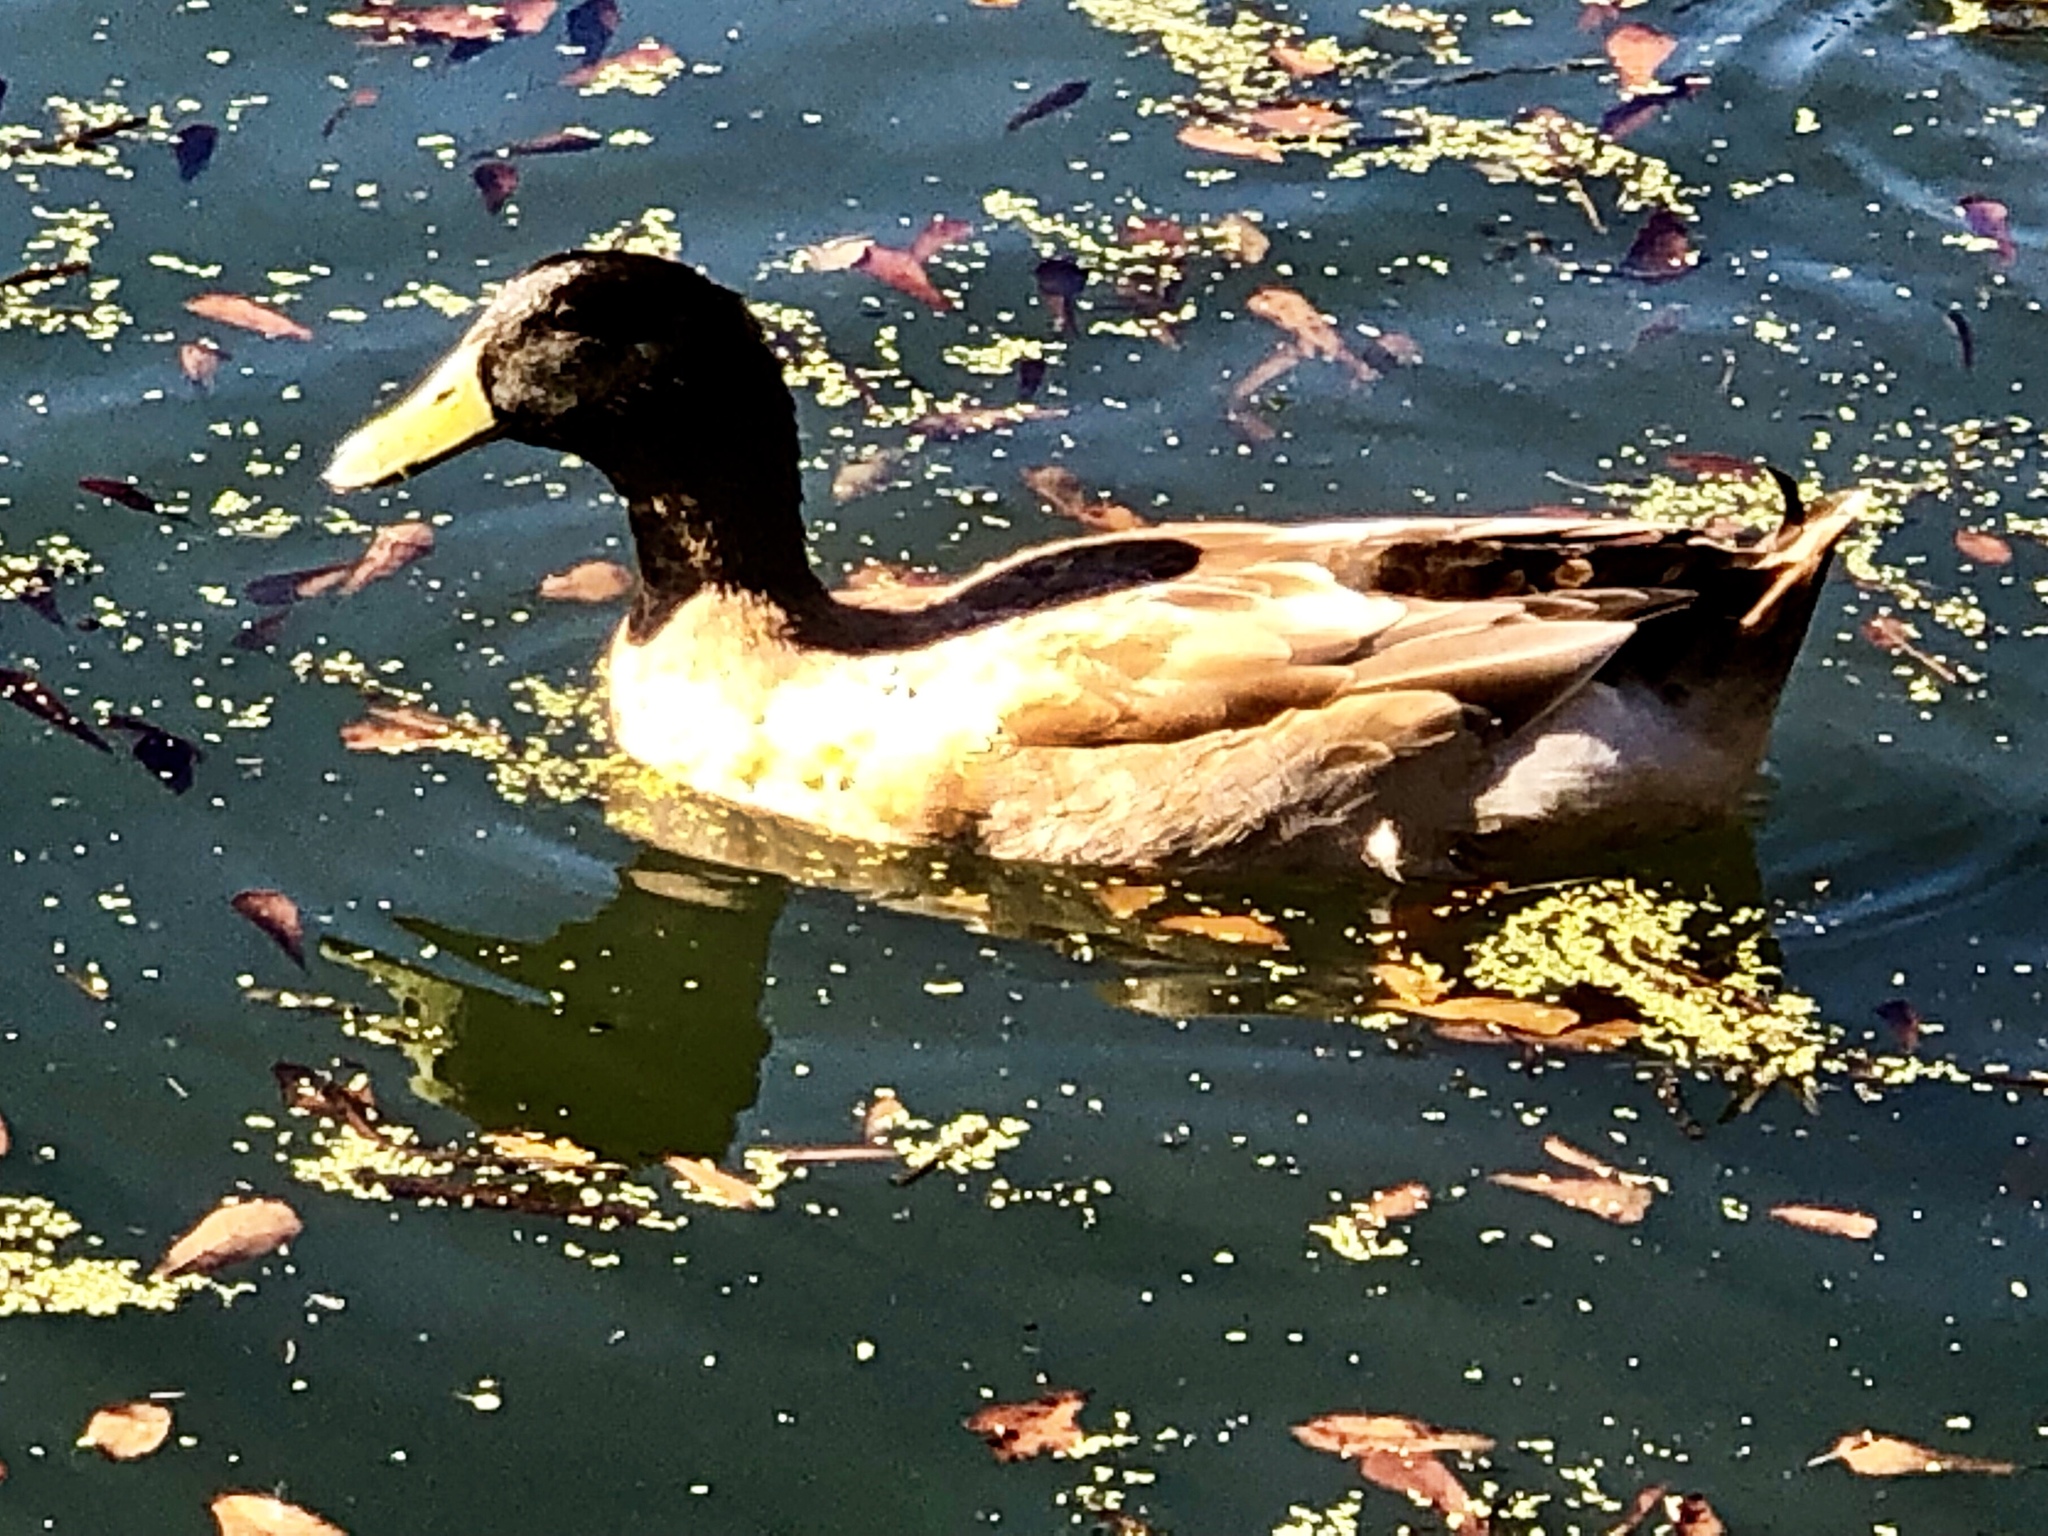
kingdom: Animalia
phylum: Chordata
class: Aves
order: Anseriformes
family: Anatidae
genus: Anas
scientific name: Anas platyrhynchos
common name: Mallard
